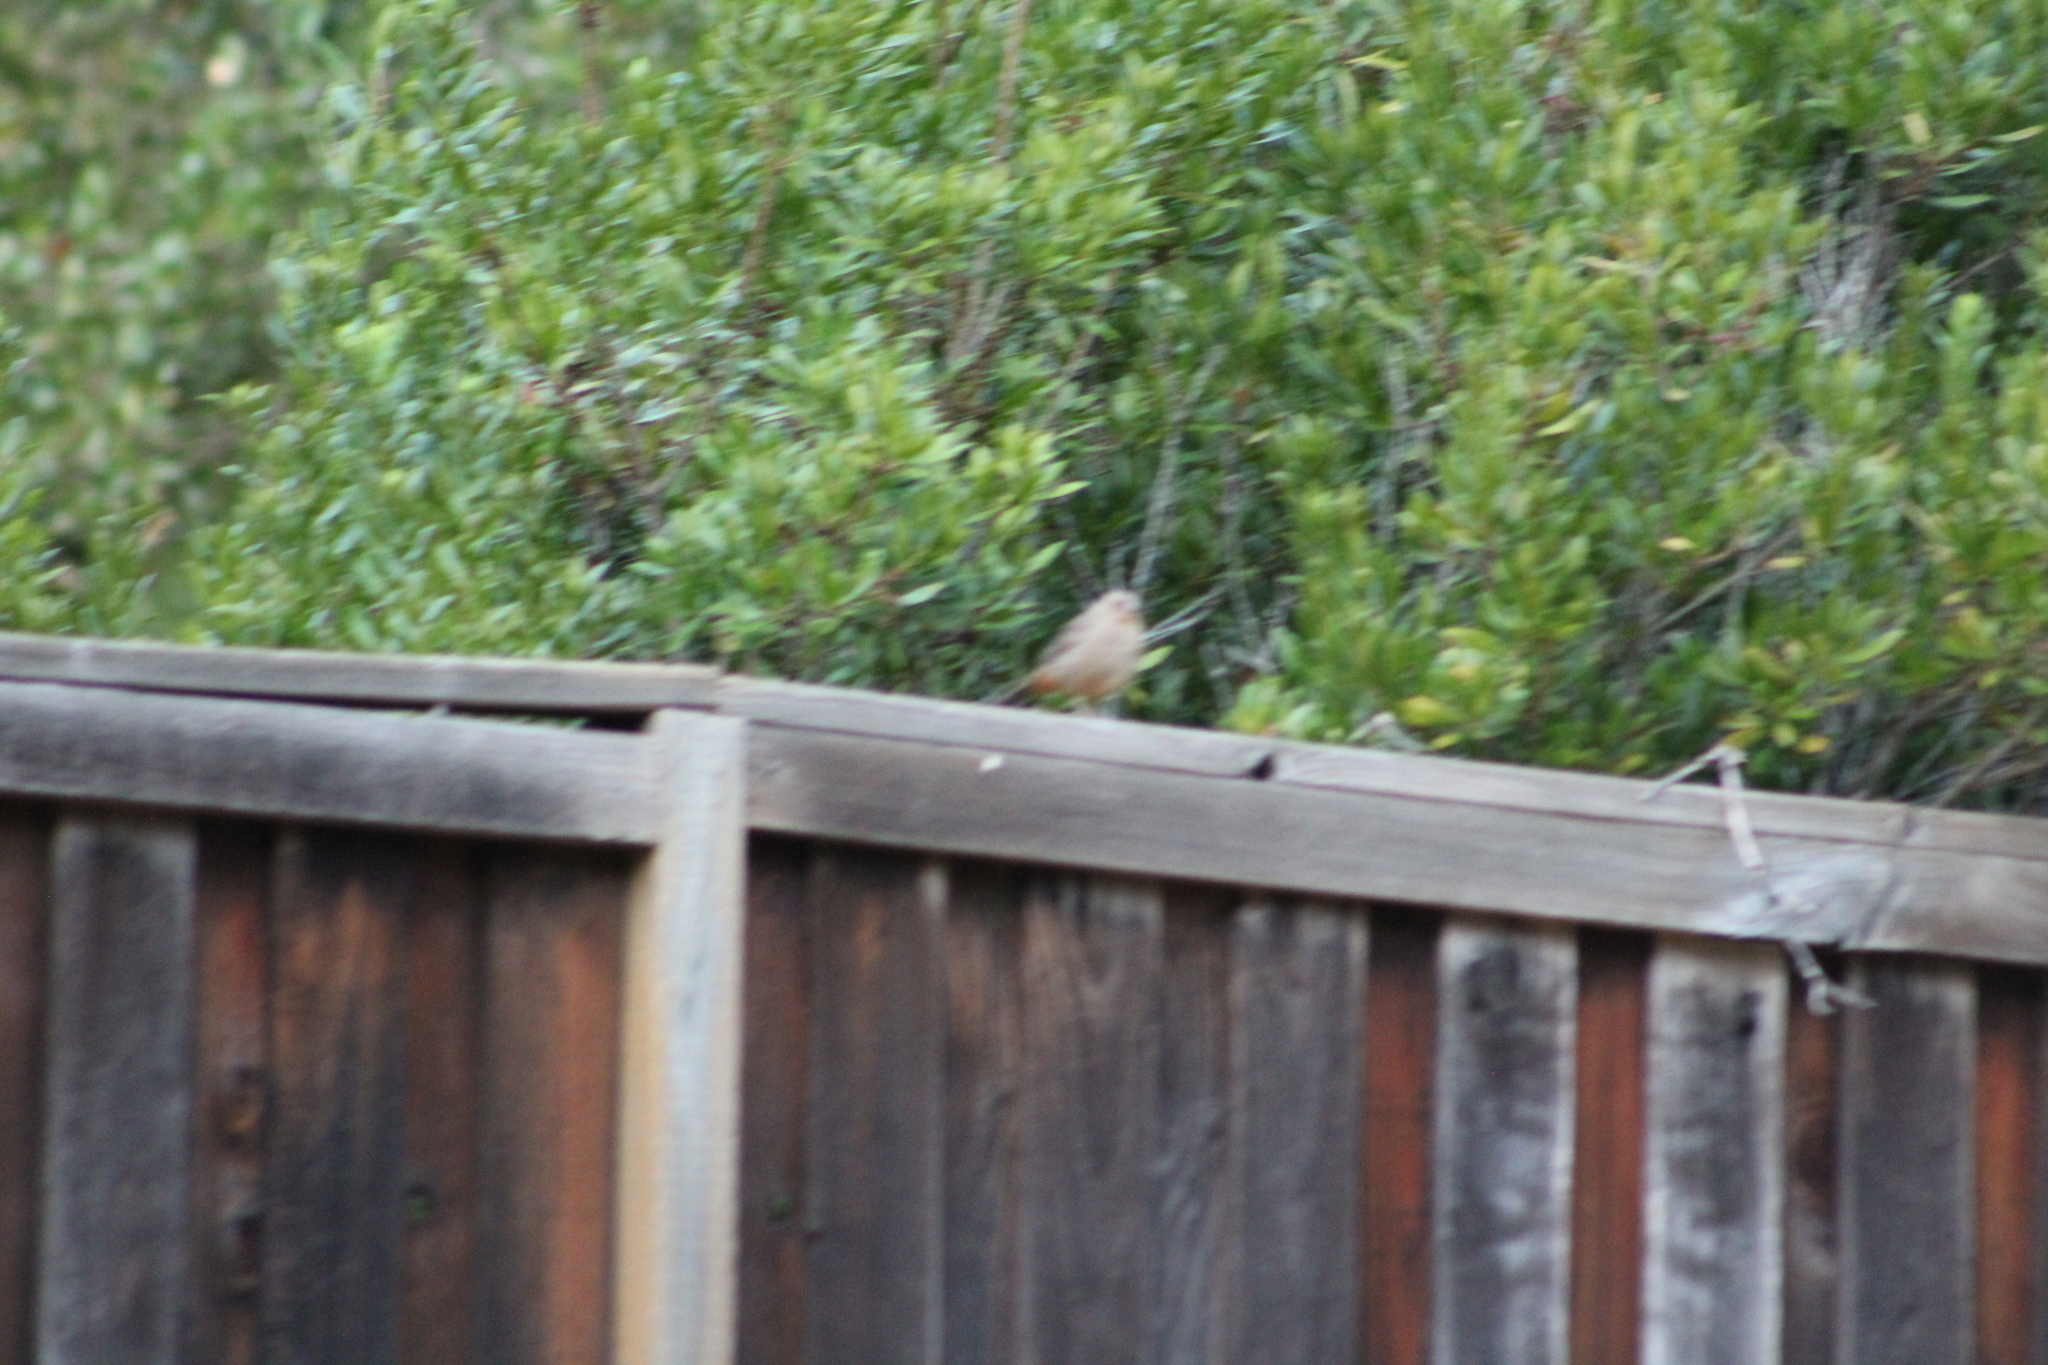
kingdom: Animalia
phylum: Chordata
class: Aves
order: Passeriformes
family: Passerellidae
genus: Melozone
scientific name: Melozone crissalis
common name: California towhee
